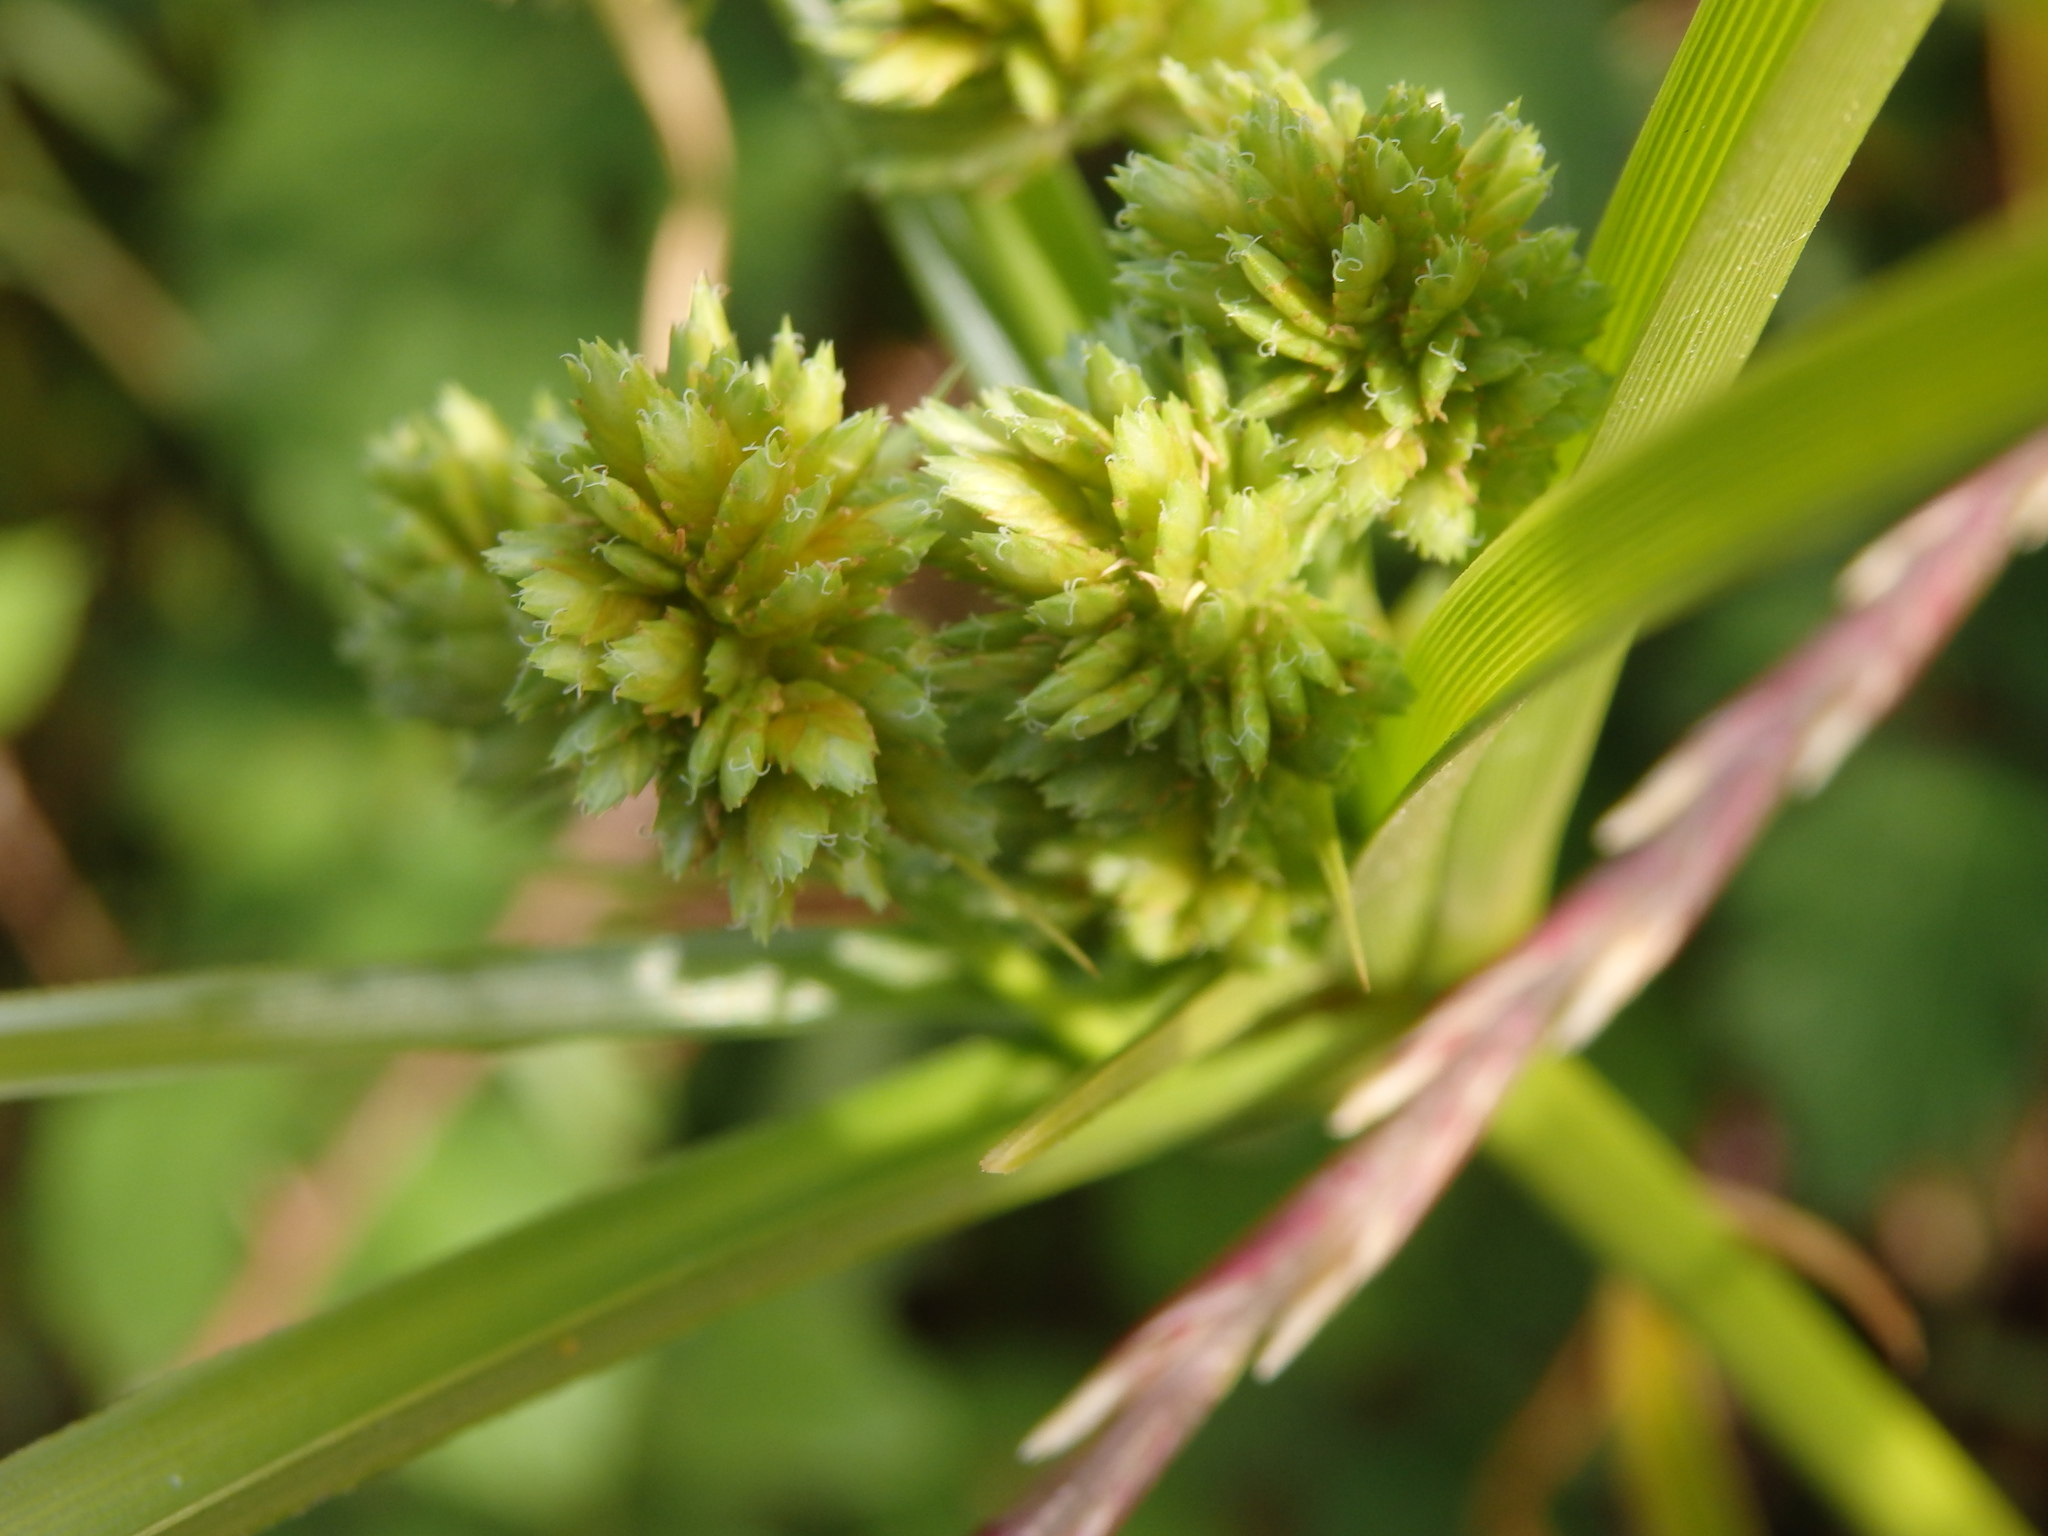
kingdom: Plantae
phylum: Tracheophyta
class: Liliopsida
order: Poales
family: Cyperaceae
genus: Cyperus
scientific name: Cyperus eragrostis
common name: Tall flatsedge
